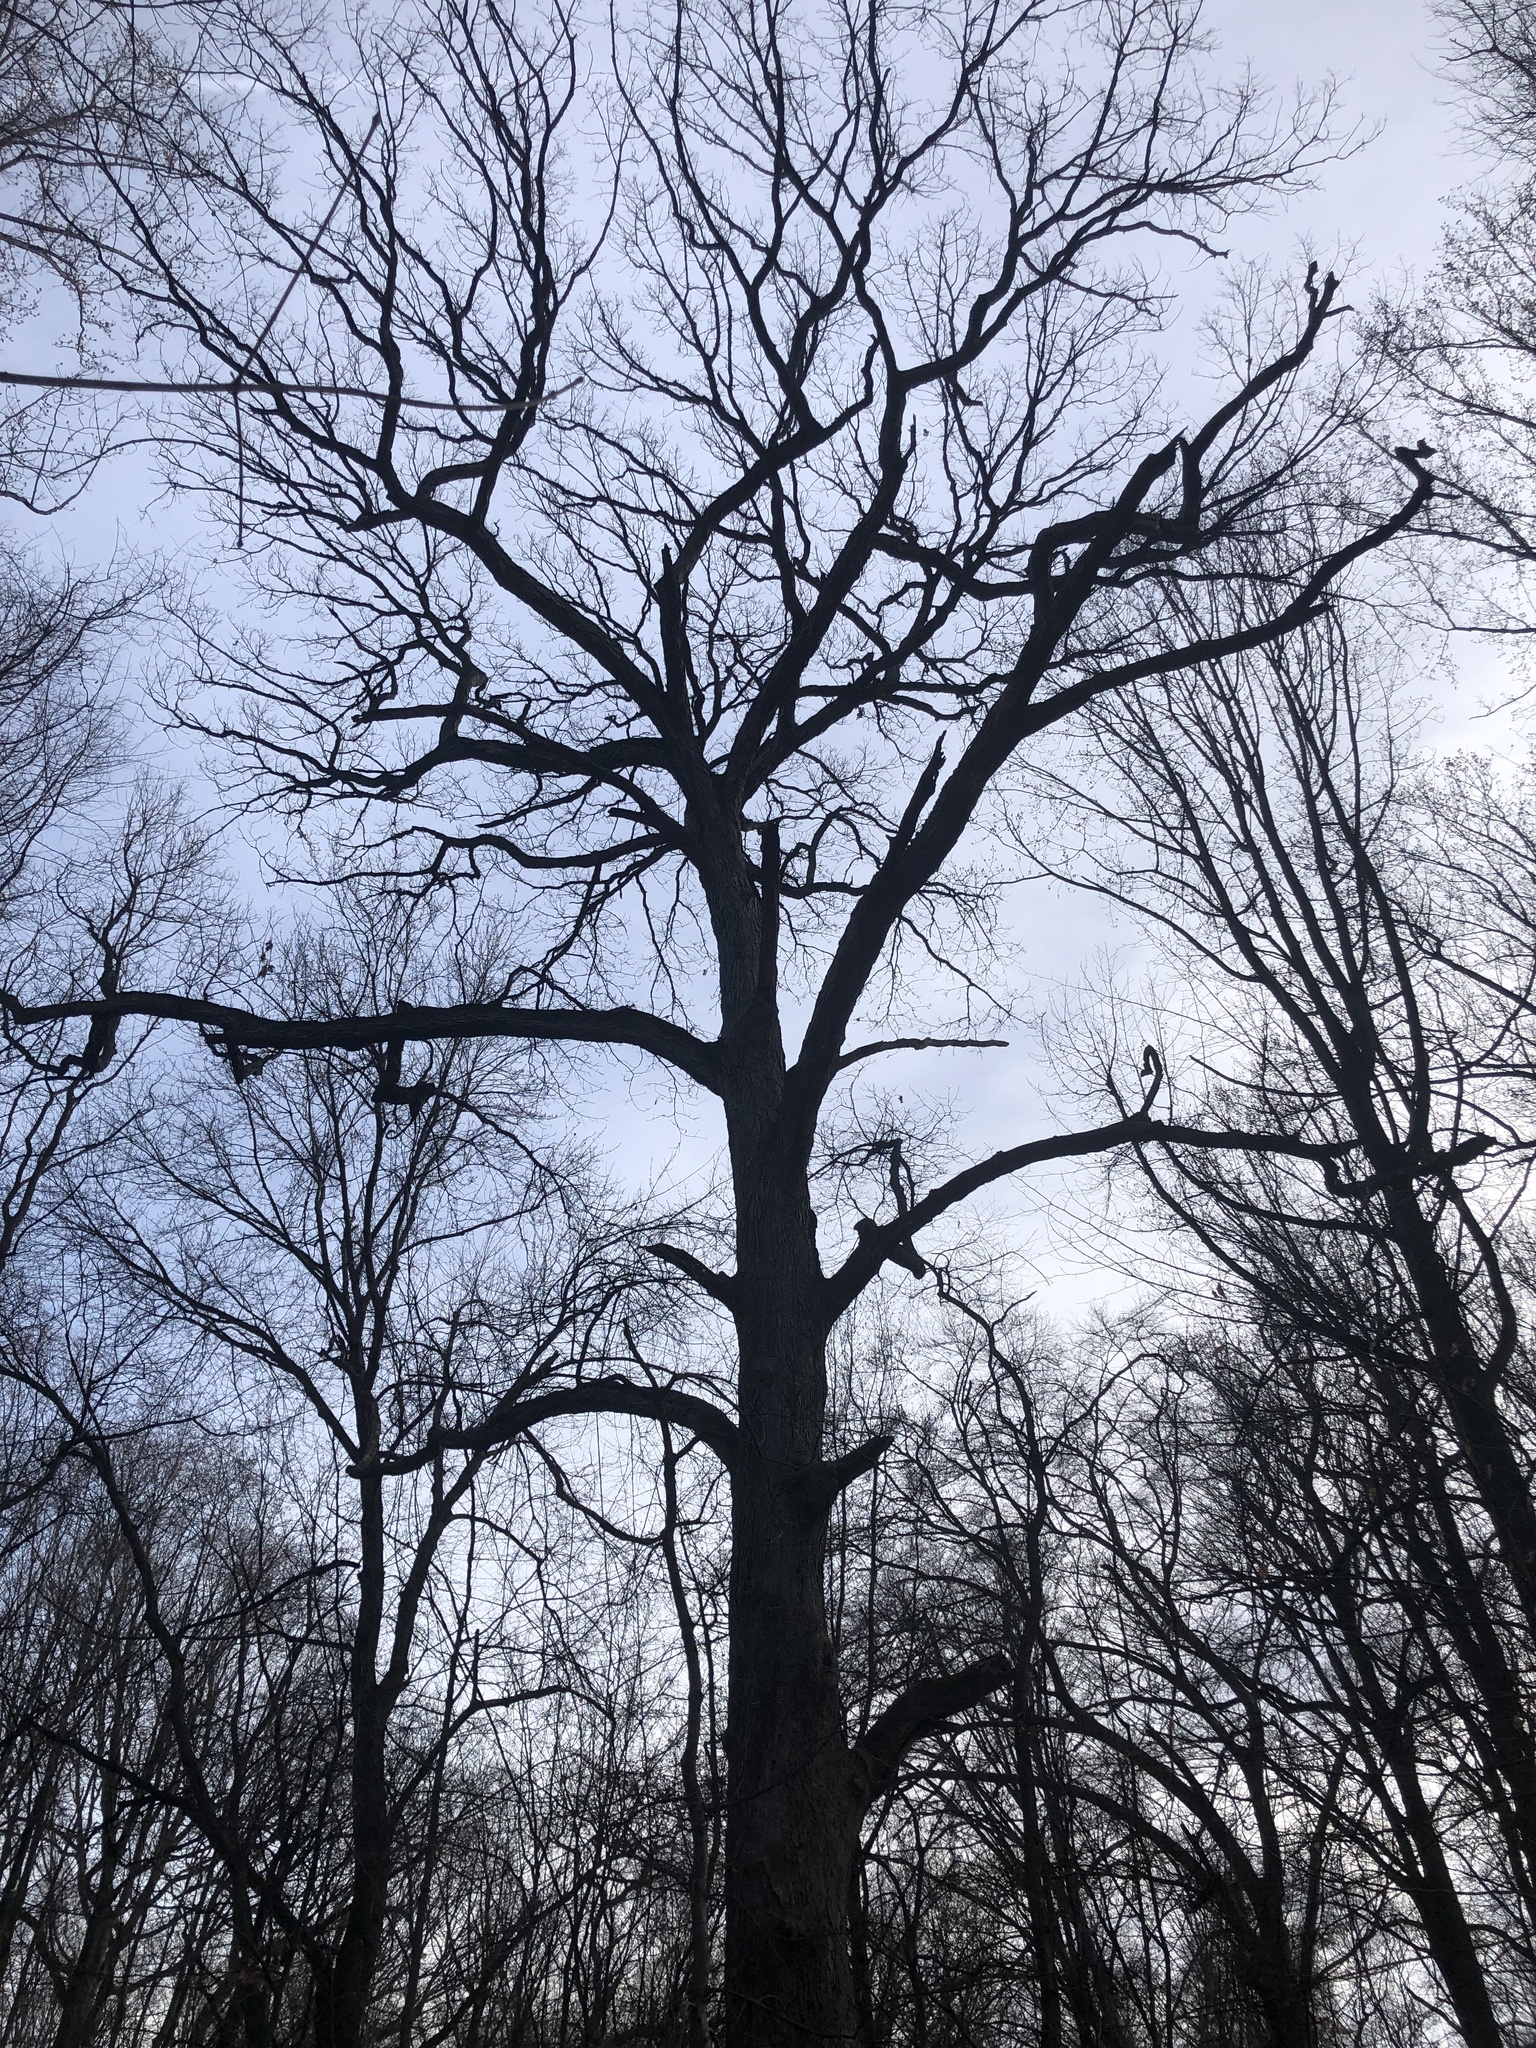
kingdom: Plantae
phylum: Tracheophyta
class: Magnoliopsida
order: Fagales
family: Fagaceae
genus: Quercus
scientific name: Quercus alba
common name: White oak
